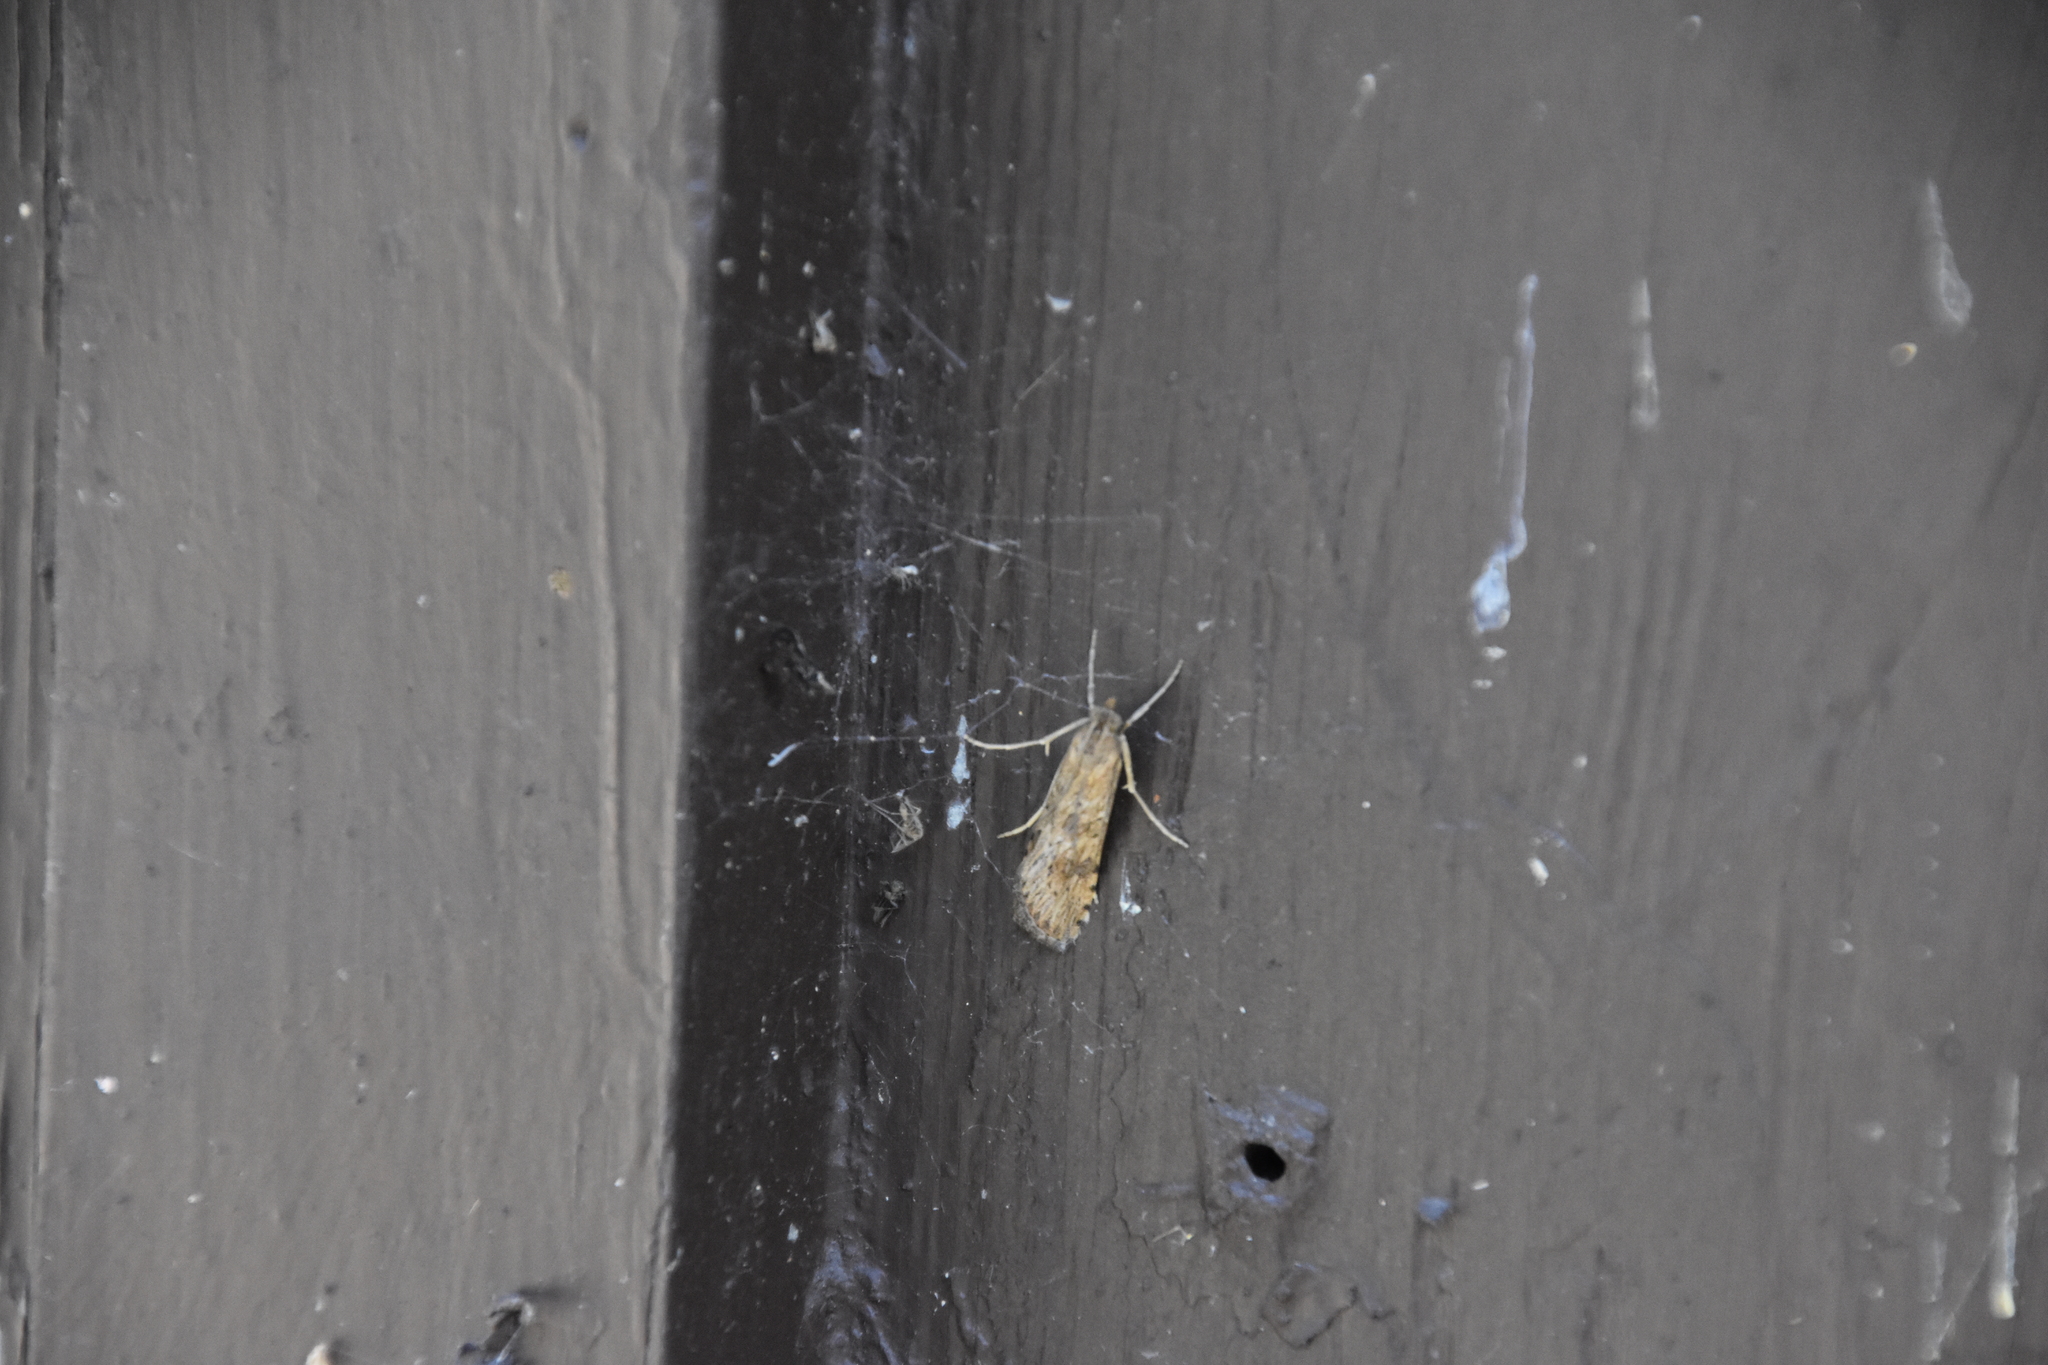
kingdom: Animalia
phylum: Arthropoda
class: Insecta
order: Lepidoptera
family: Crambidae
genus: Nomophila
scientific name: Nomophila nearctica
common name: American rush veneer
